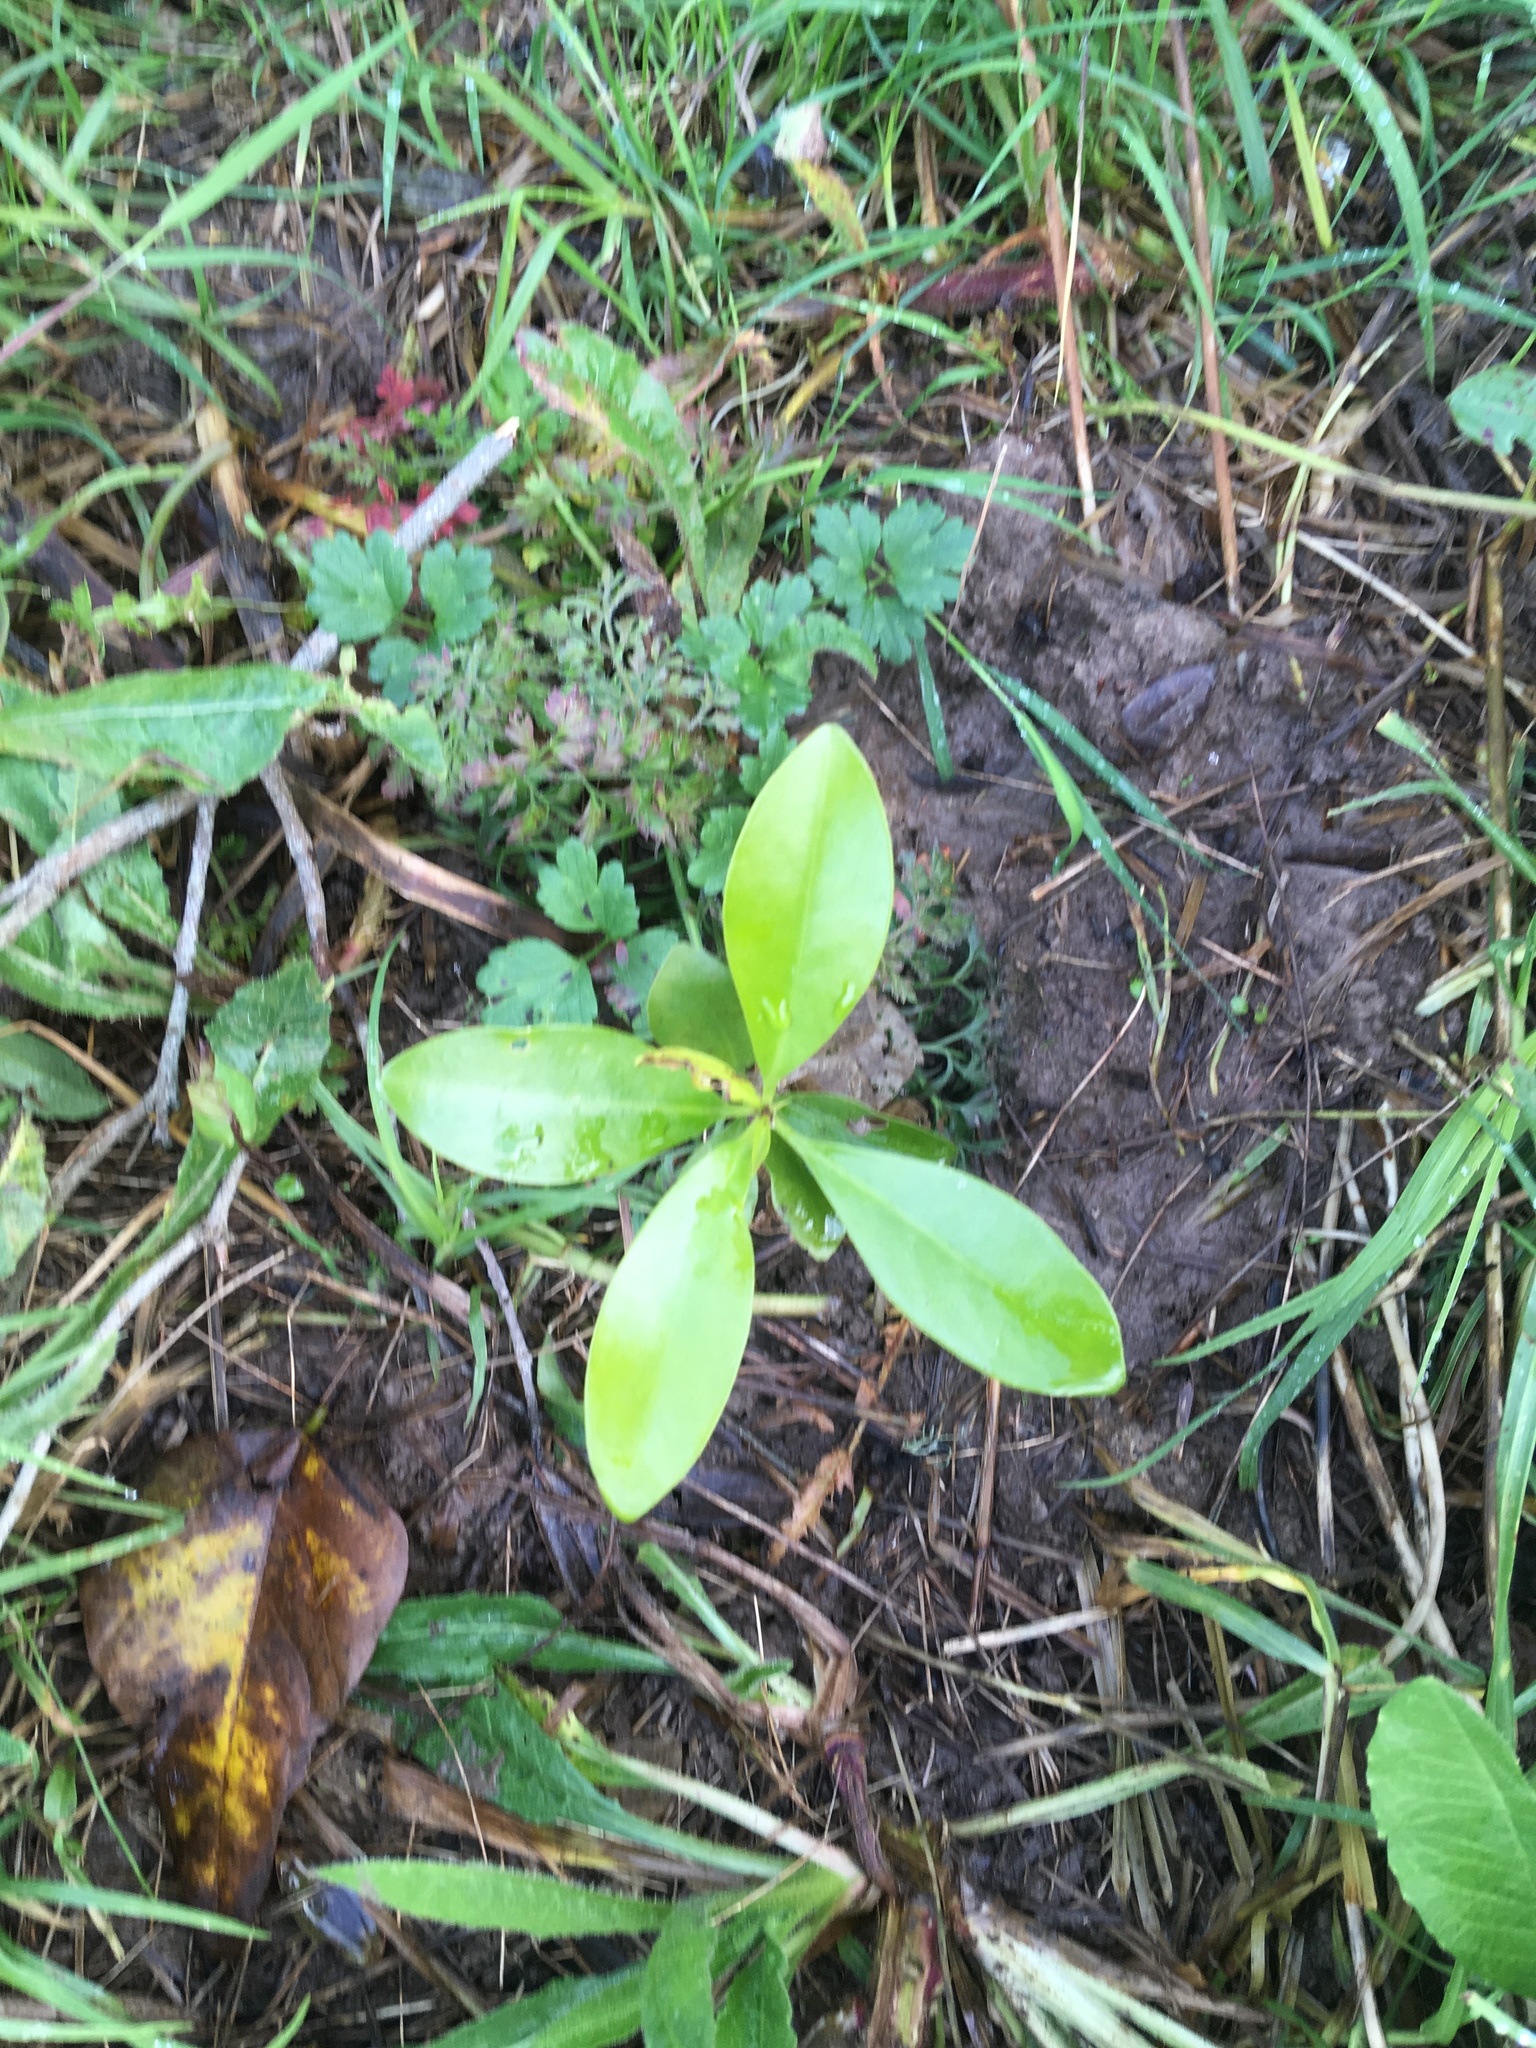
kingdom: Plantae
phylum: Tracheophyta
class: Magnoliopsida
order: Cucurbitales
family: Corynocarpaceae
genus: Corynocarpus
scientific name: Corynocarpus laevigatus
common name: New zealand laurel
